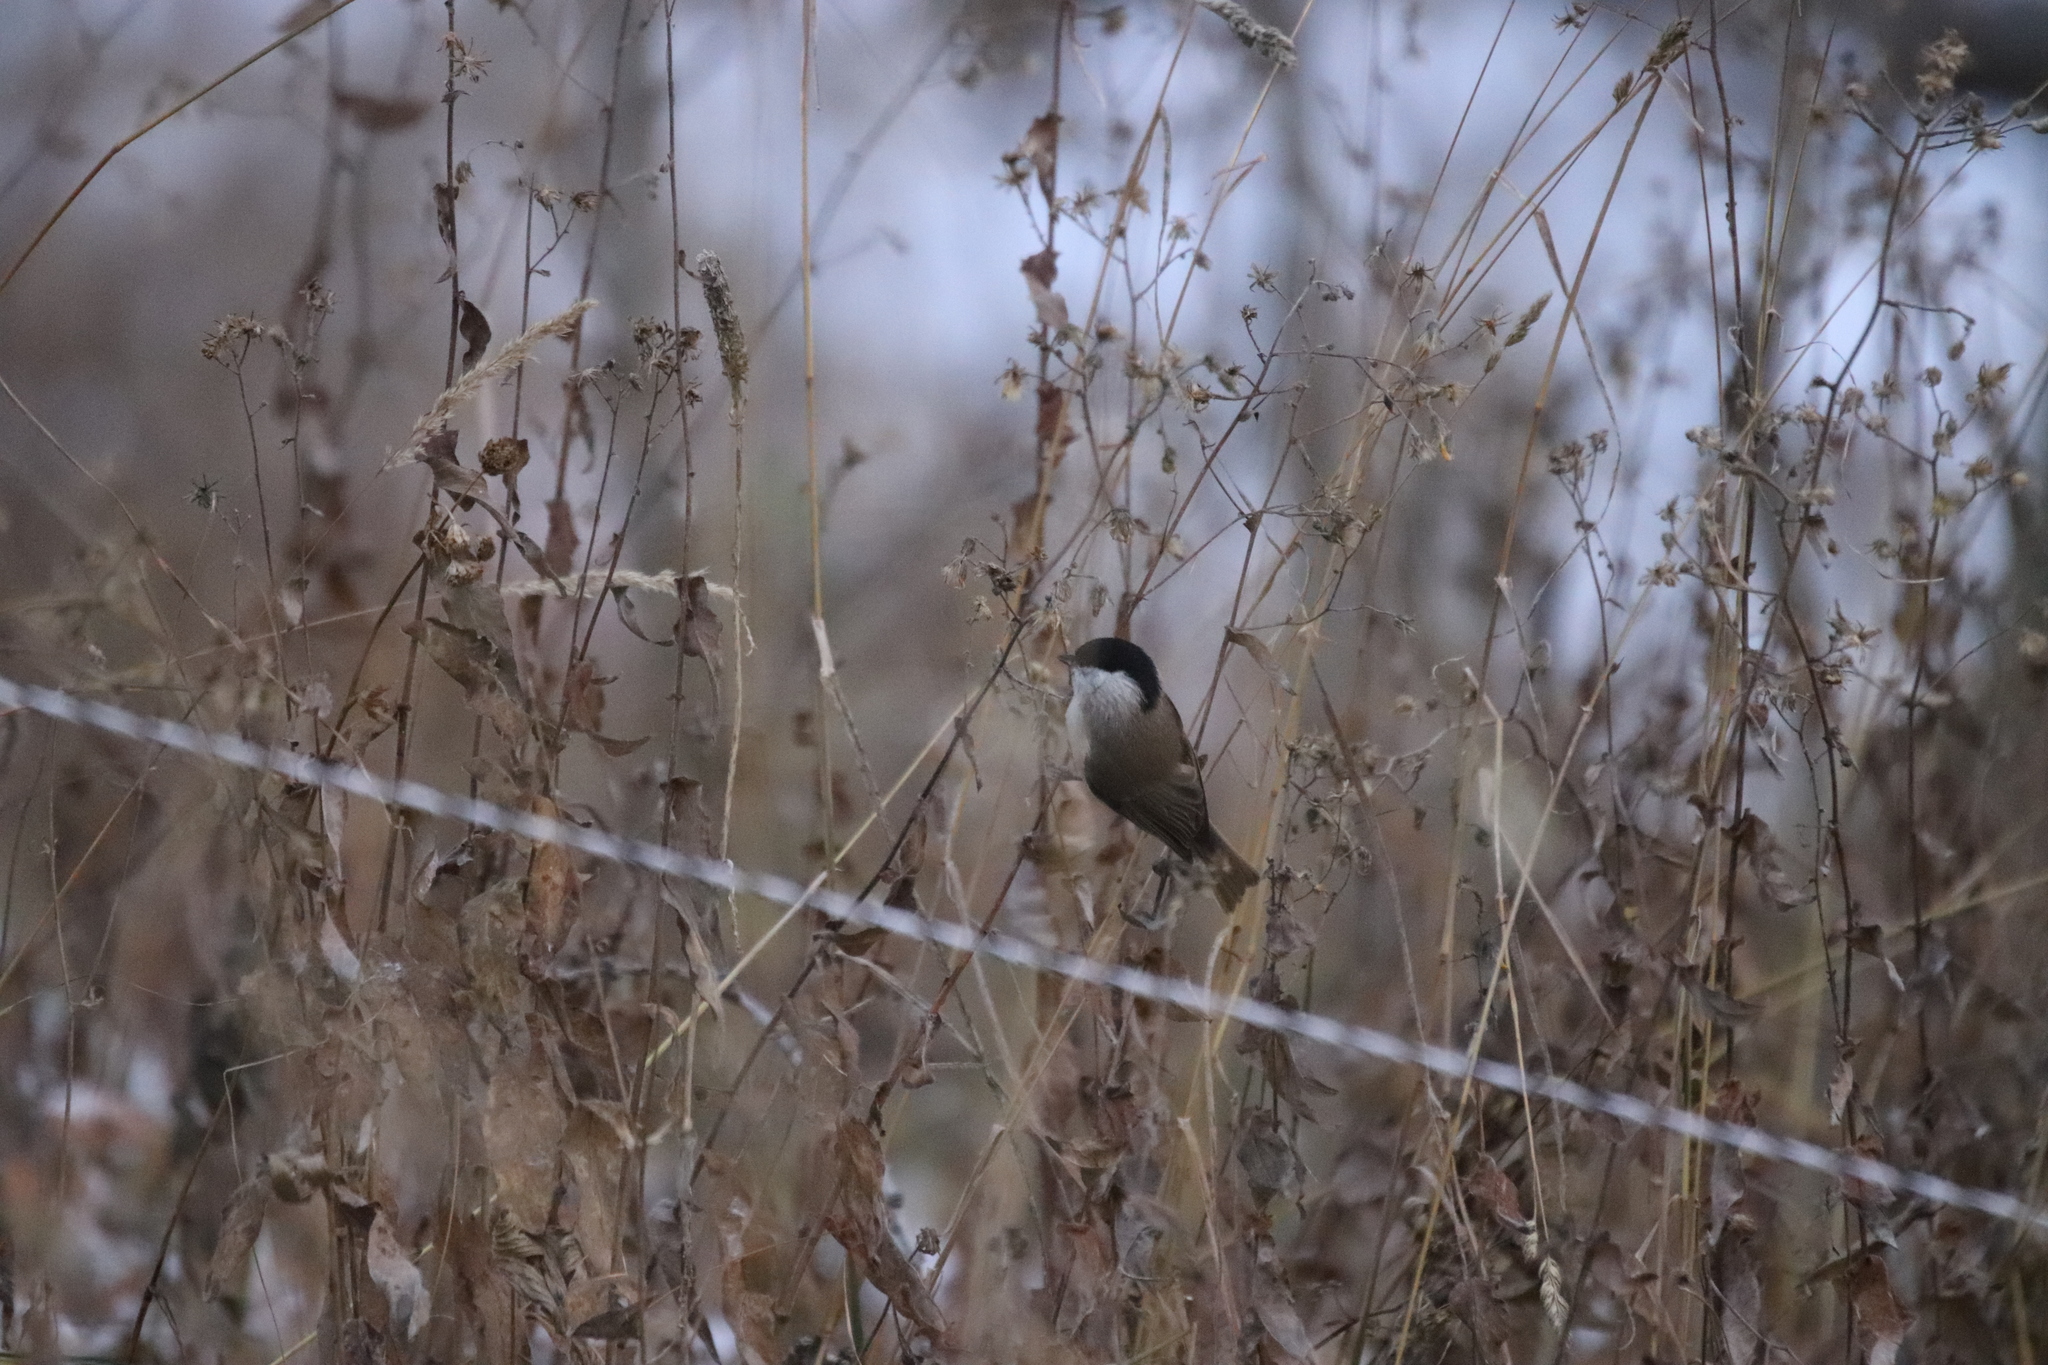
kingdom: Animalia
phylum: Chordata
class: Aves
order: Passeriformes
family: Paridae
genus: Poecile
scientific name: Poecile palustris
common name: Marsh tit
